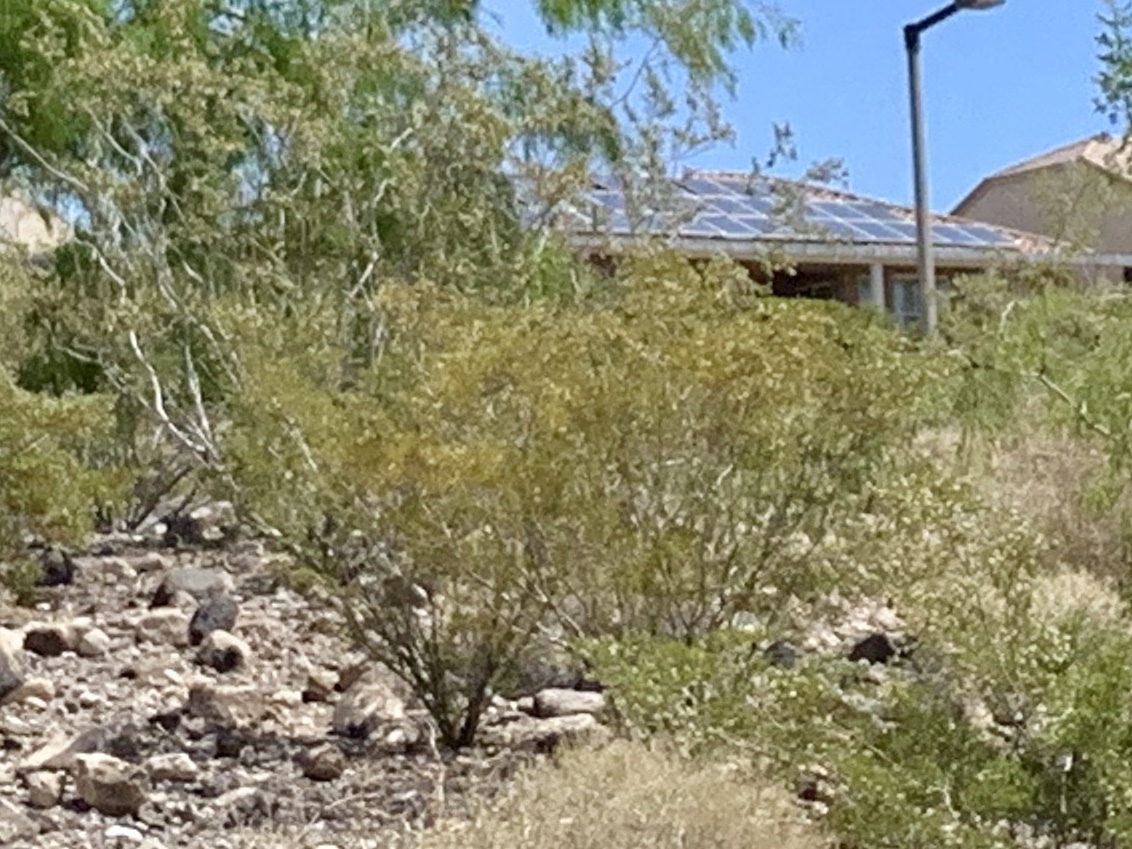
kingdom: Plantae
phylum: Tracheophyta
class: Magnoliopsida
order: Zygophyllales
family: Zygophyllaceae
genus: Larrea
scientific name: Larrea tridentata
